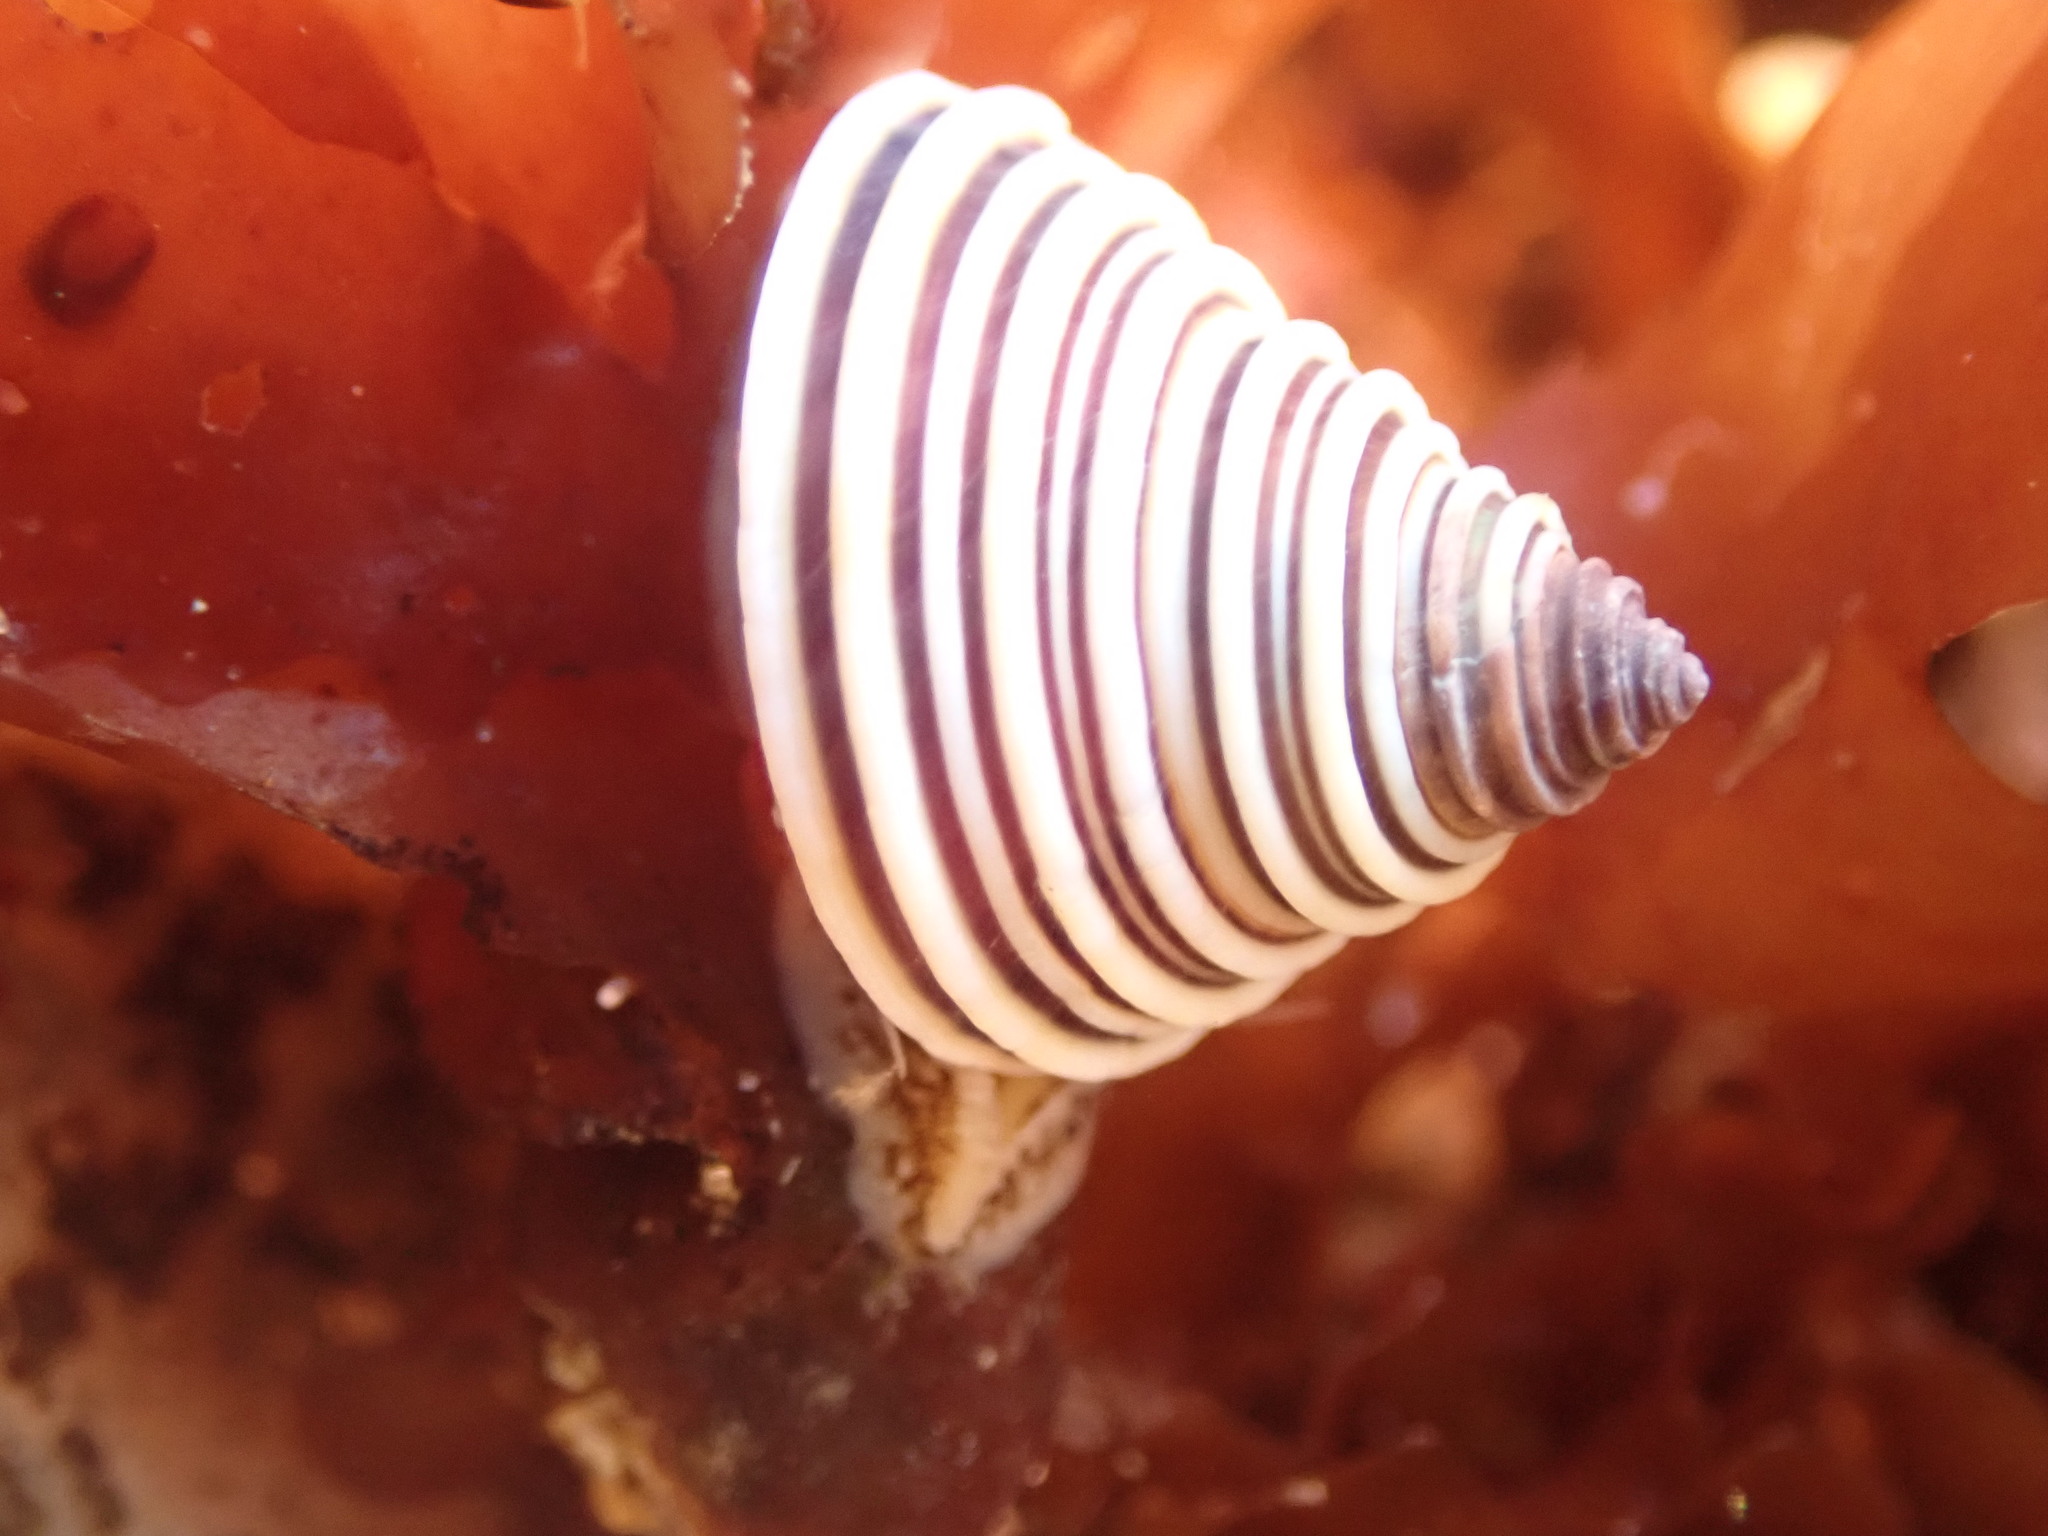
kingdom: Animalia
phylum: Mollusca
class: Gastropoda
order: Trochida
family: Calliostomatidae
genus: Calliostoma
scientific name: Calliostoma canaliculatum
